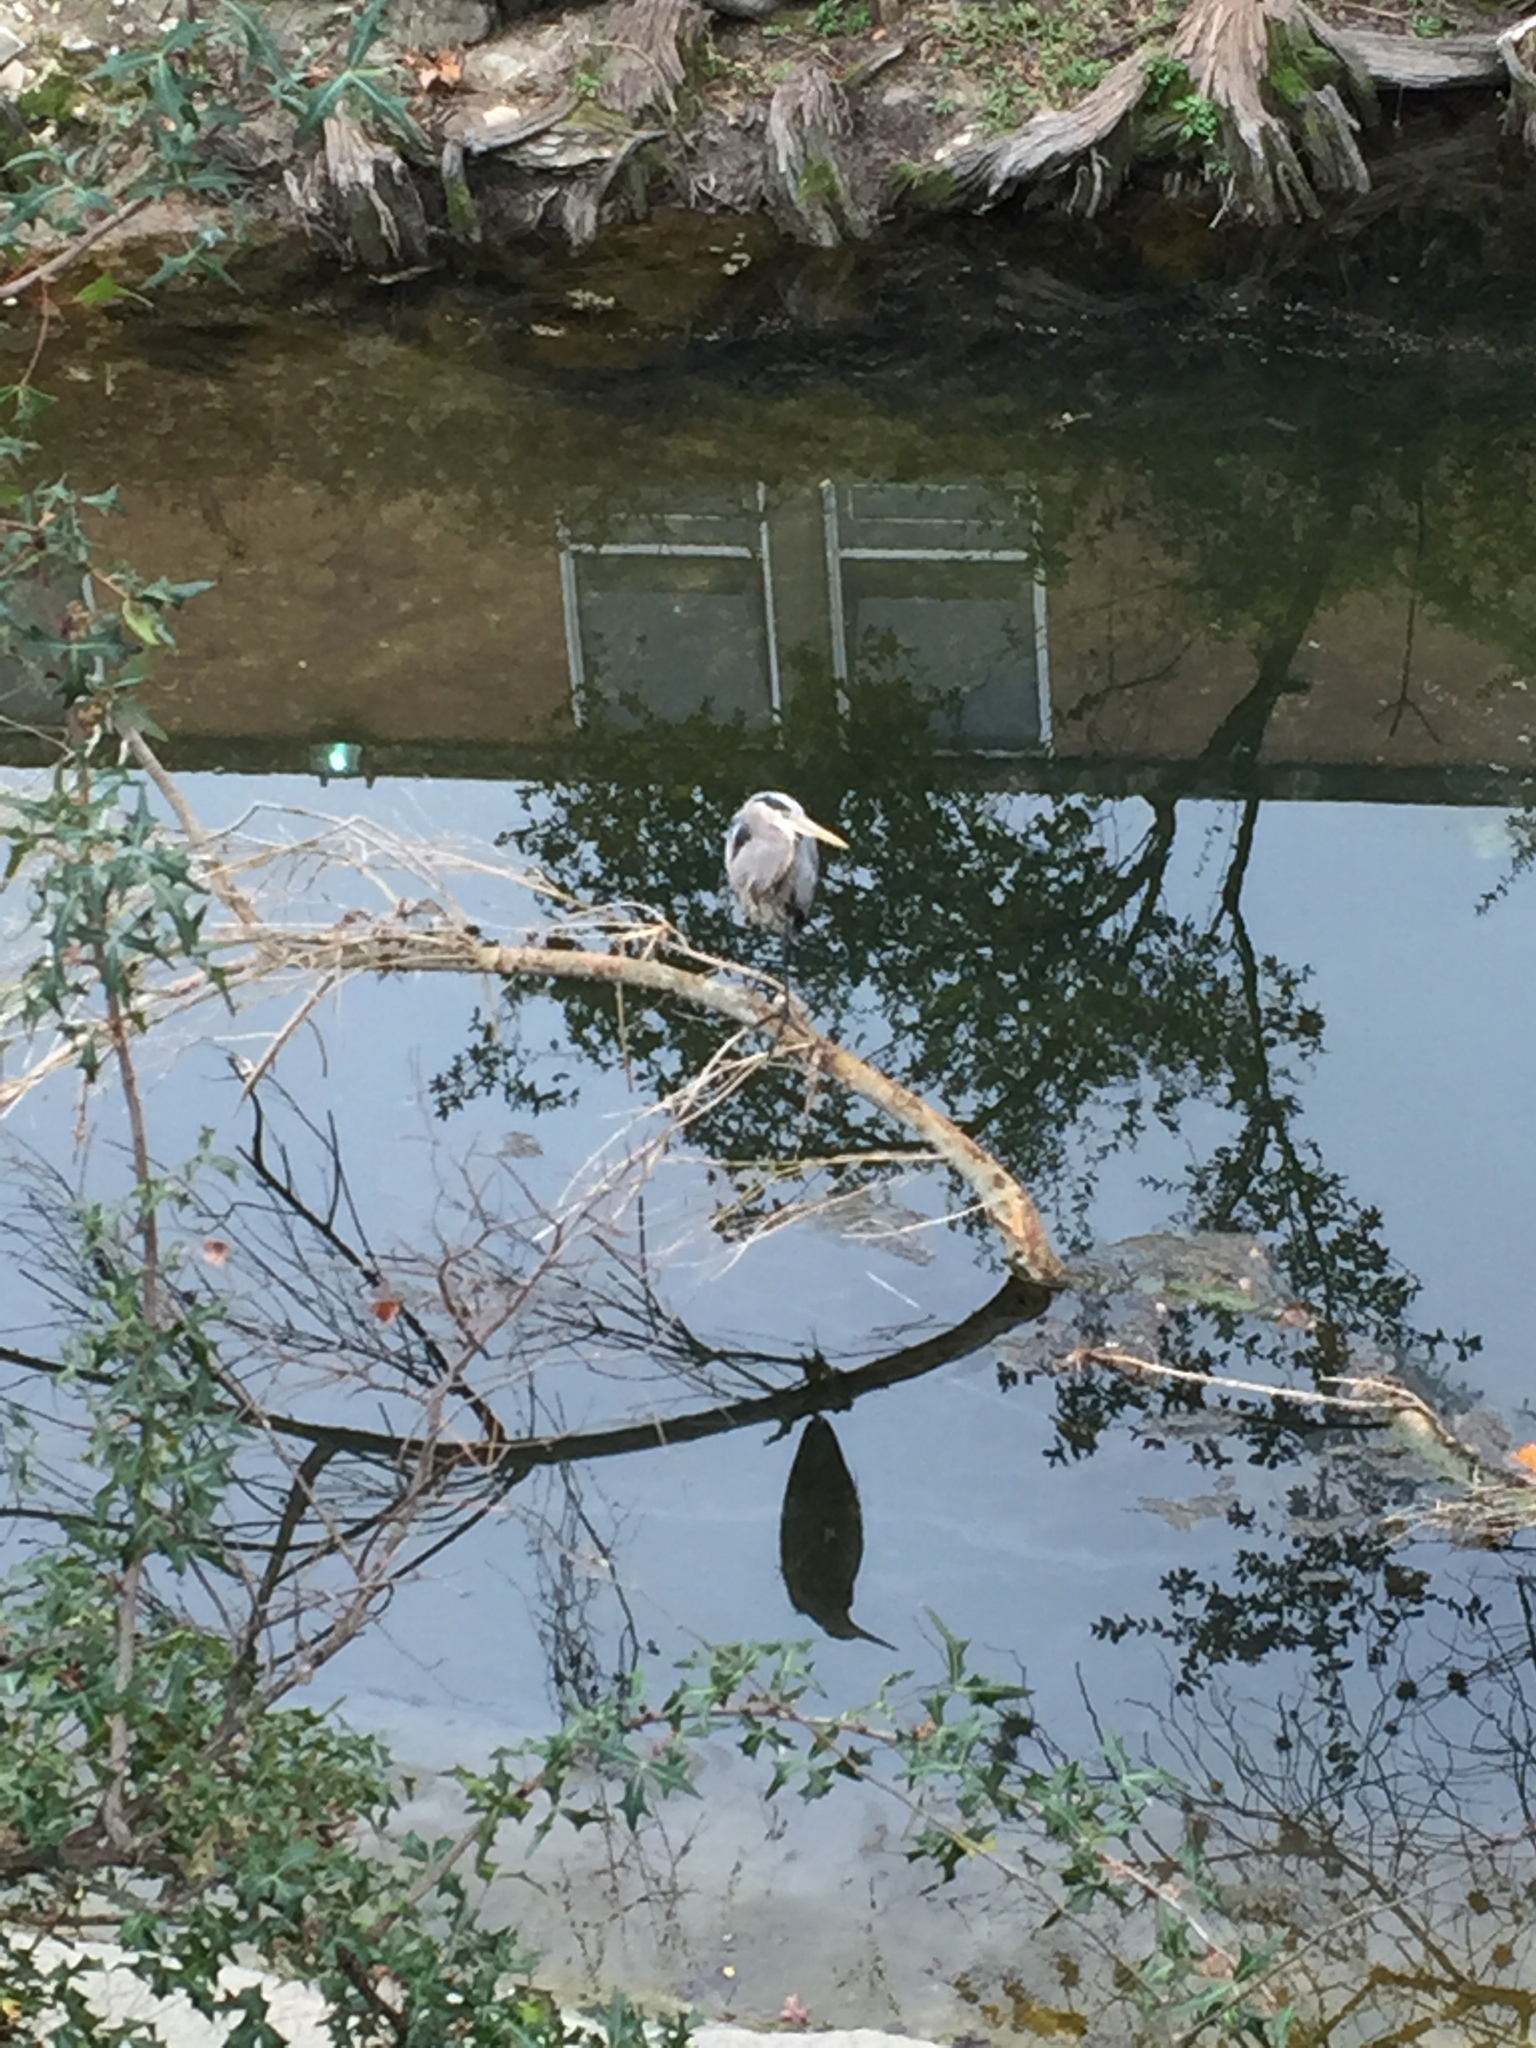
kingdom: Animalia
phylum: Chordata
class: Aves
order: Pelecaniformes
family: Ardeidae
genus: Ardea
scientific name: Ardea herodias
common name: Great blue heron
